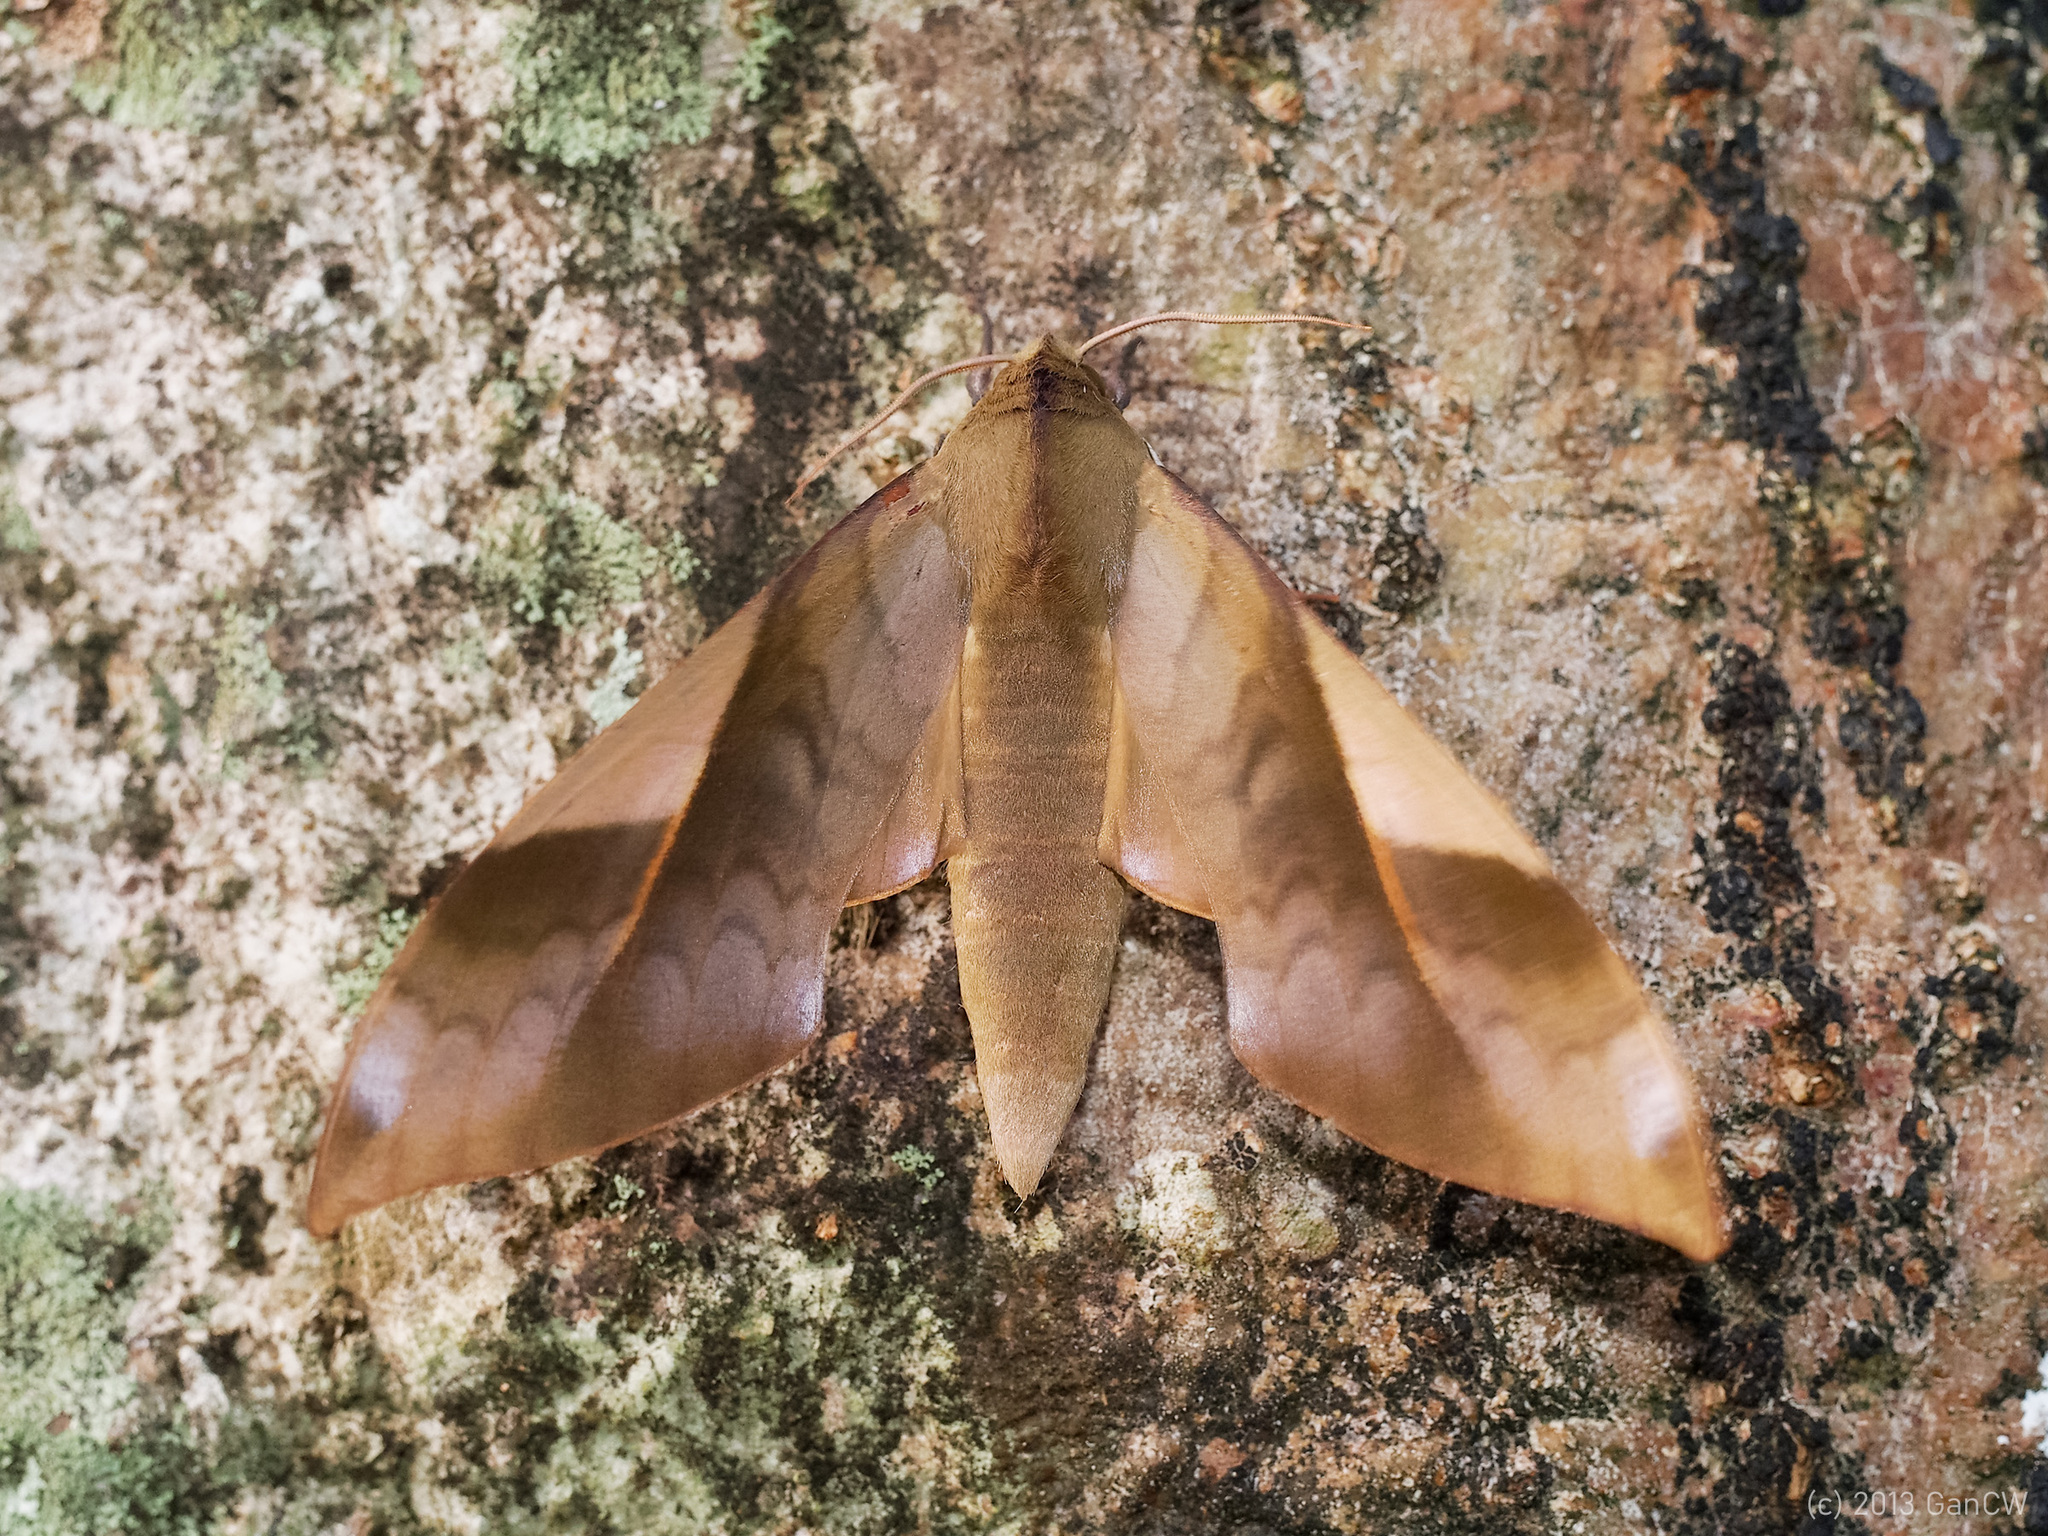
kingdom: Animalia
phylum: Arthropoda
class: Insecta
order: Lepidoptera
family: Sphingidae
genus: Clanis
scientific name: Clanis stenosema
